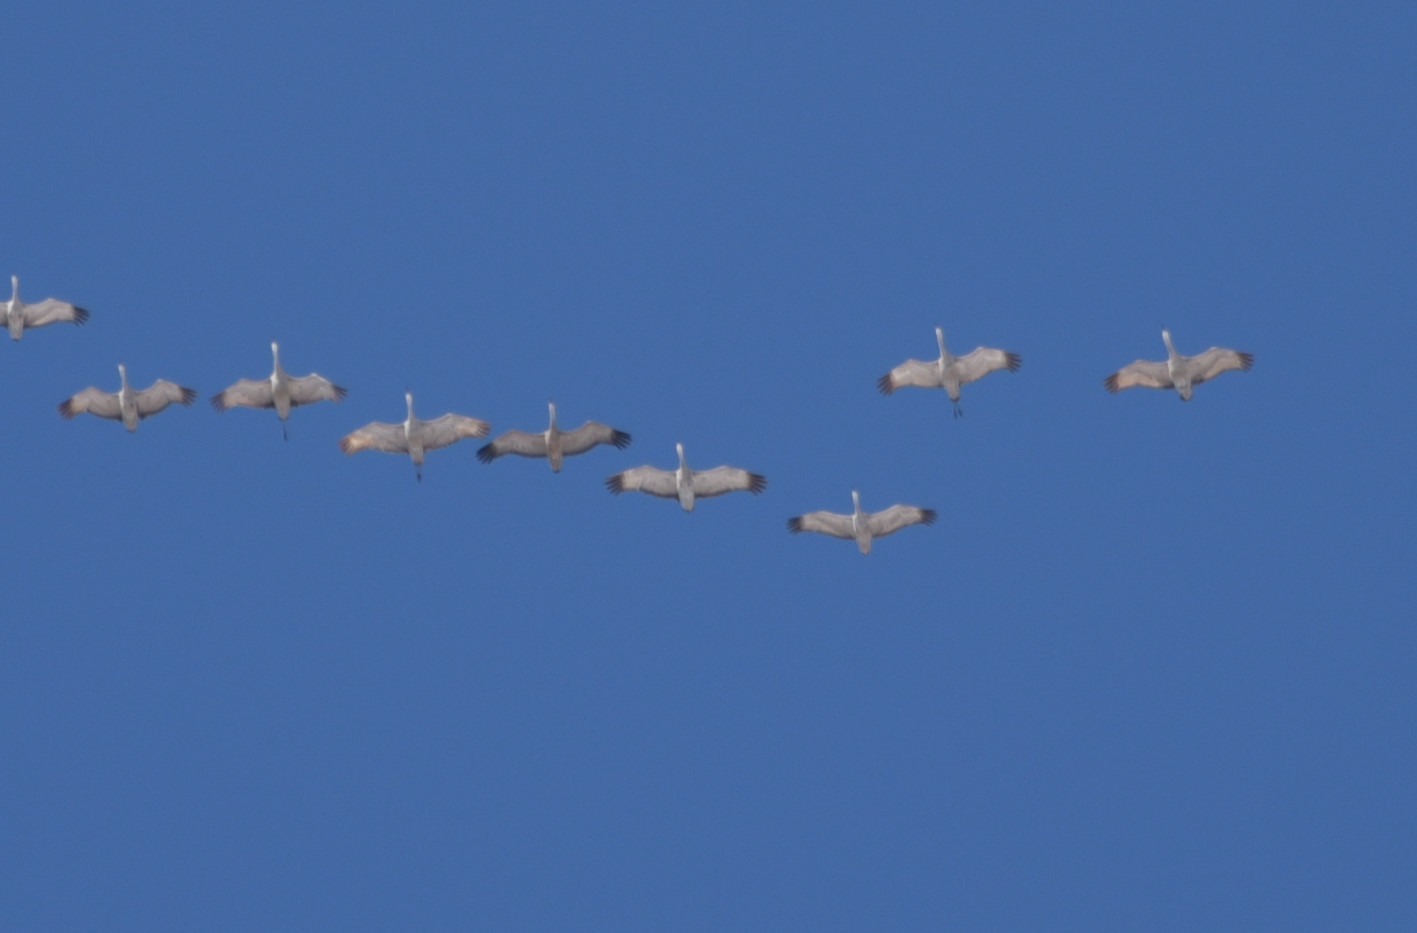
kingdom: Animalia
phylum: Chordata
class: Aves
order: Gruiformes
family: Gruidae
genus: Grus
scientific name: Grus canadensis
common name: Sandhill crane
